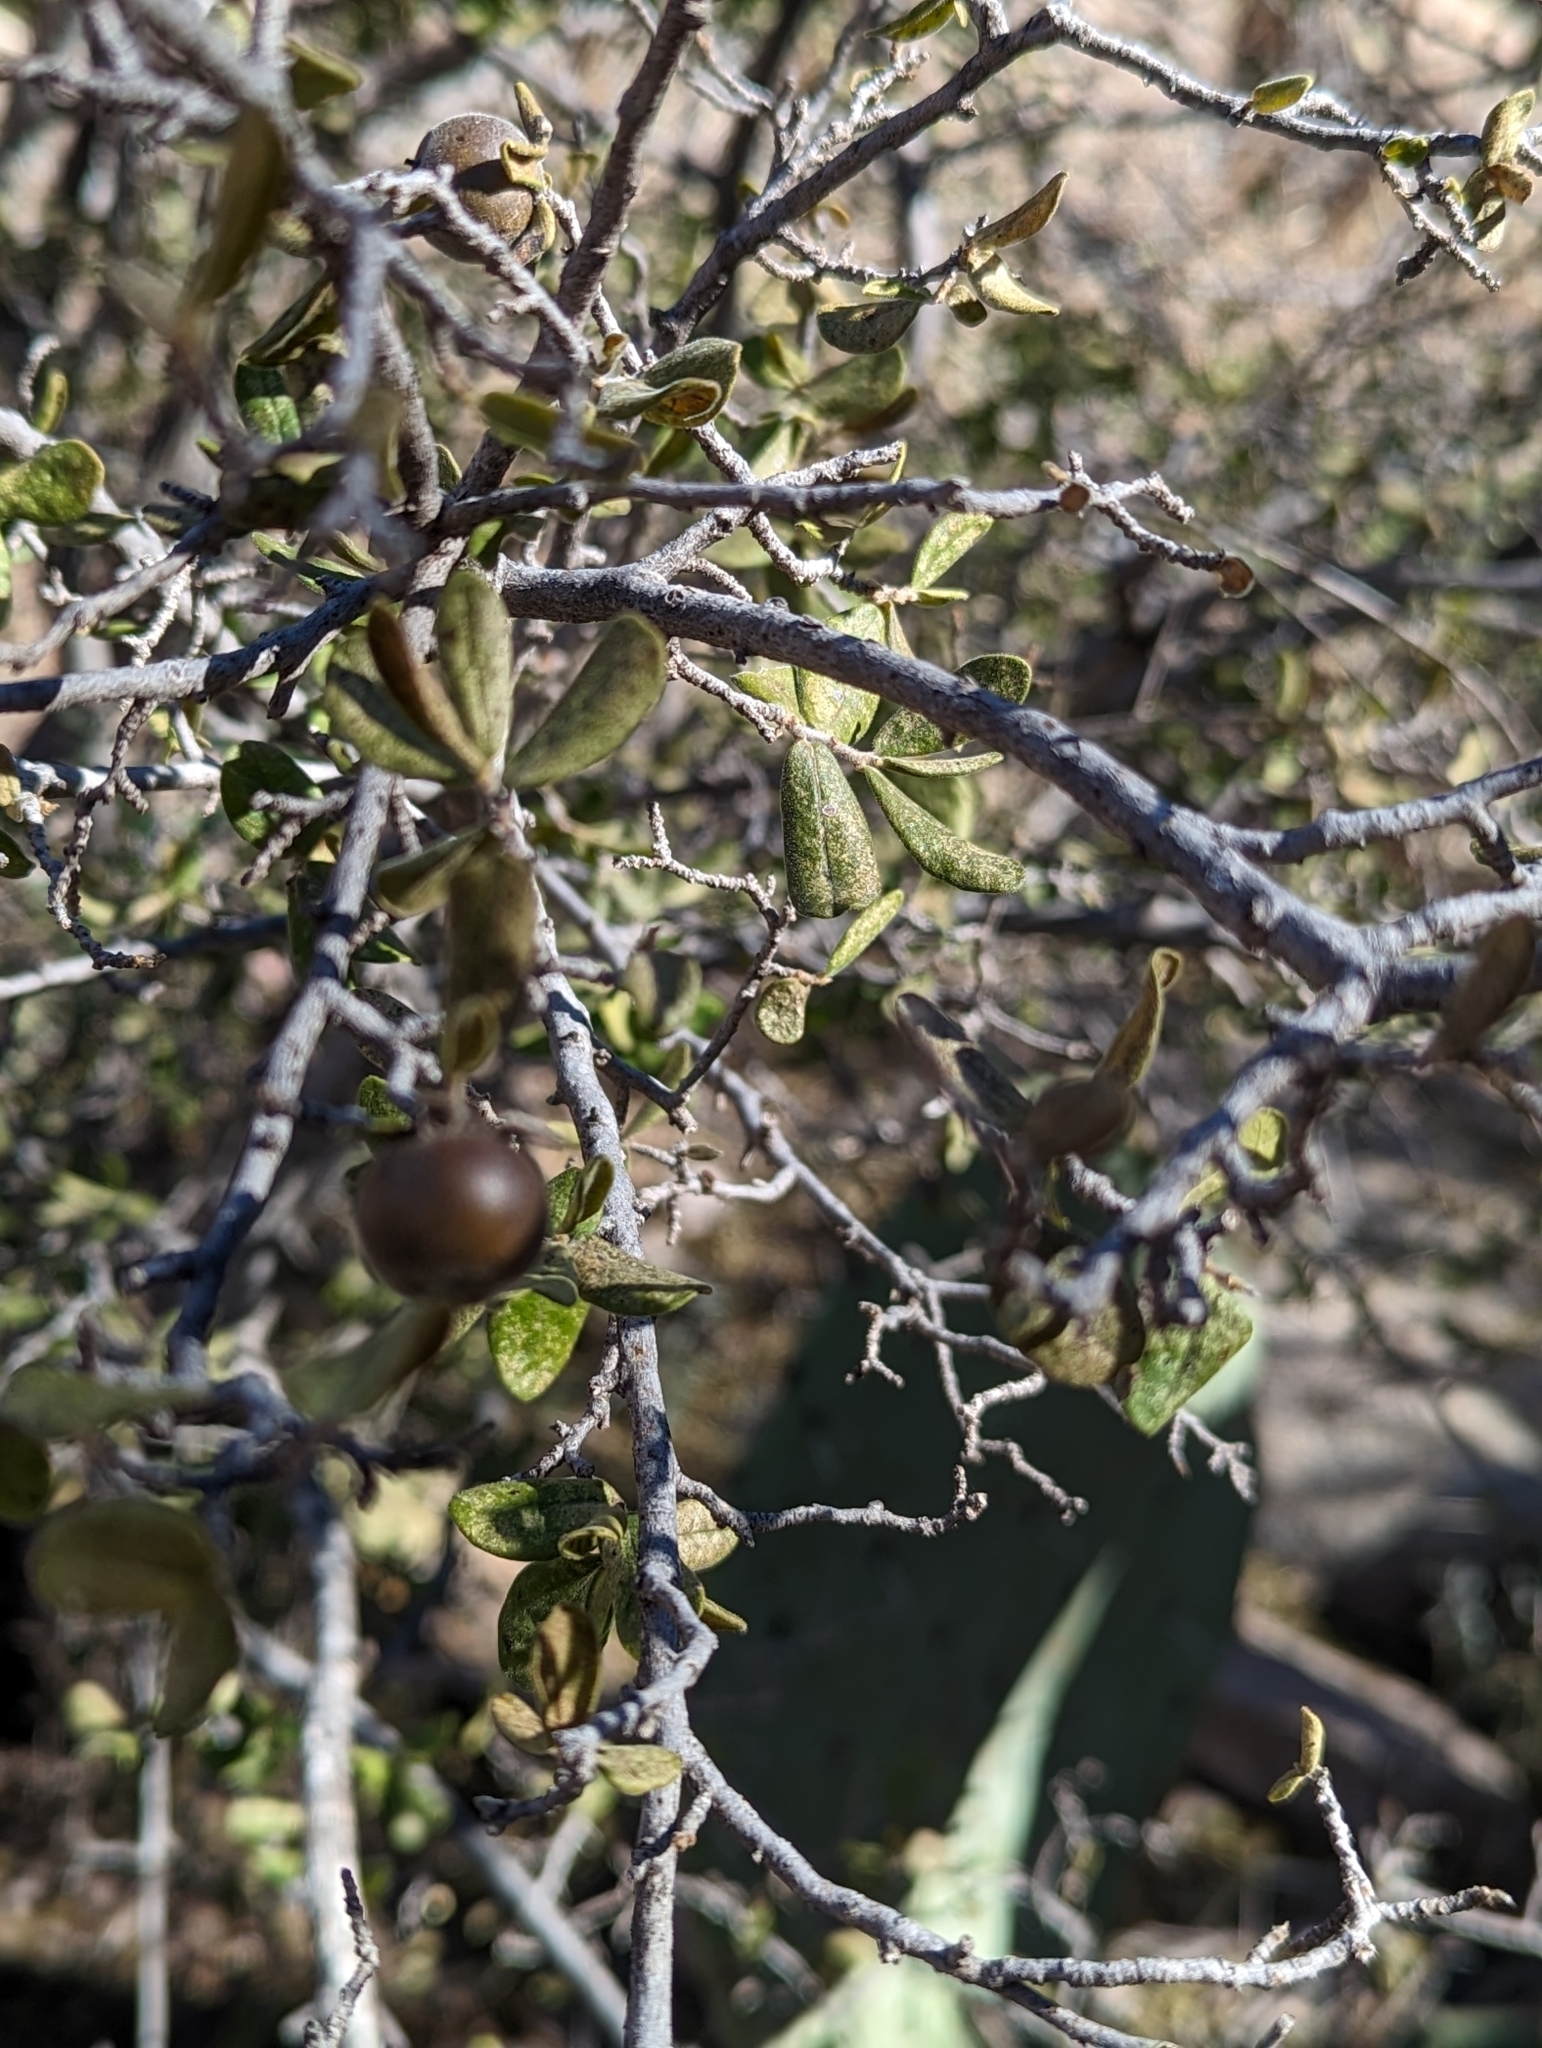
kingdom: Plantae
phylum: Tracheophyta
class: Magnoliopsida
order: Ericales
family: Ebenaceae
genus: Diospyros
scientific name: Diospyros texana
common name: Texas persimmon
